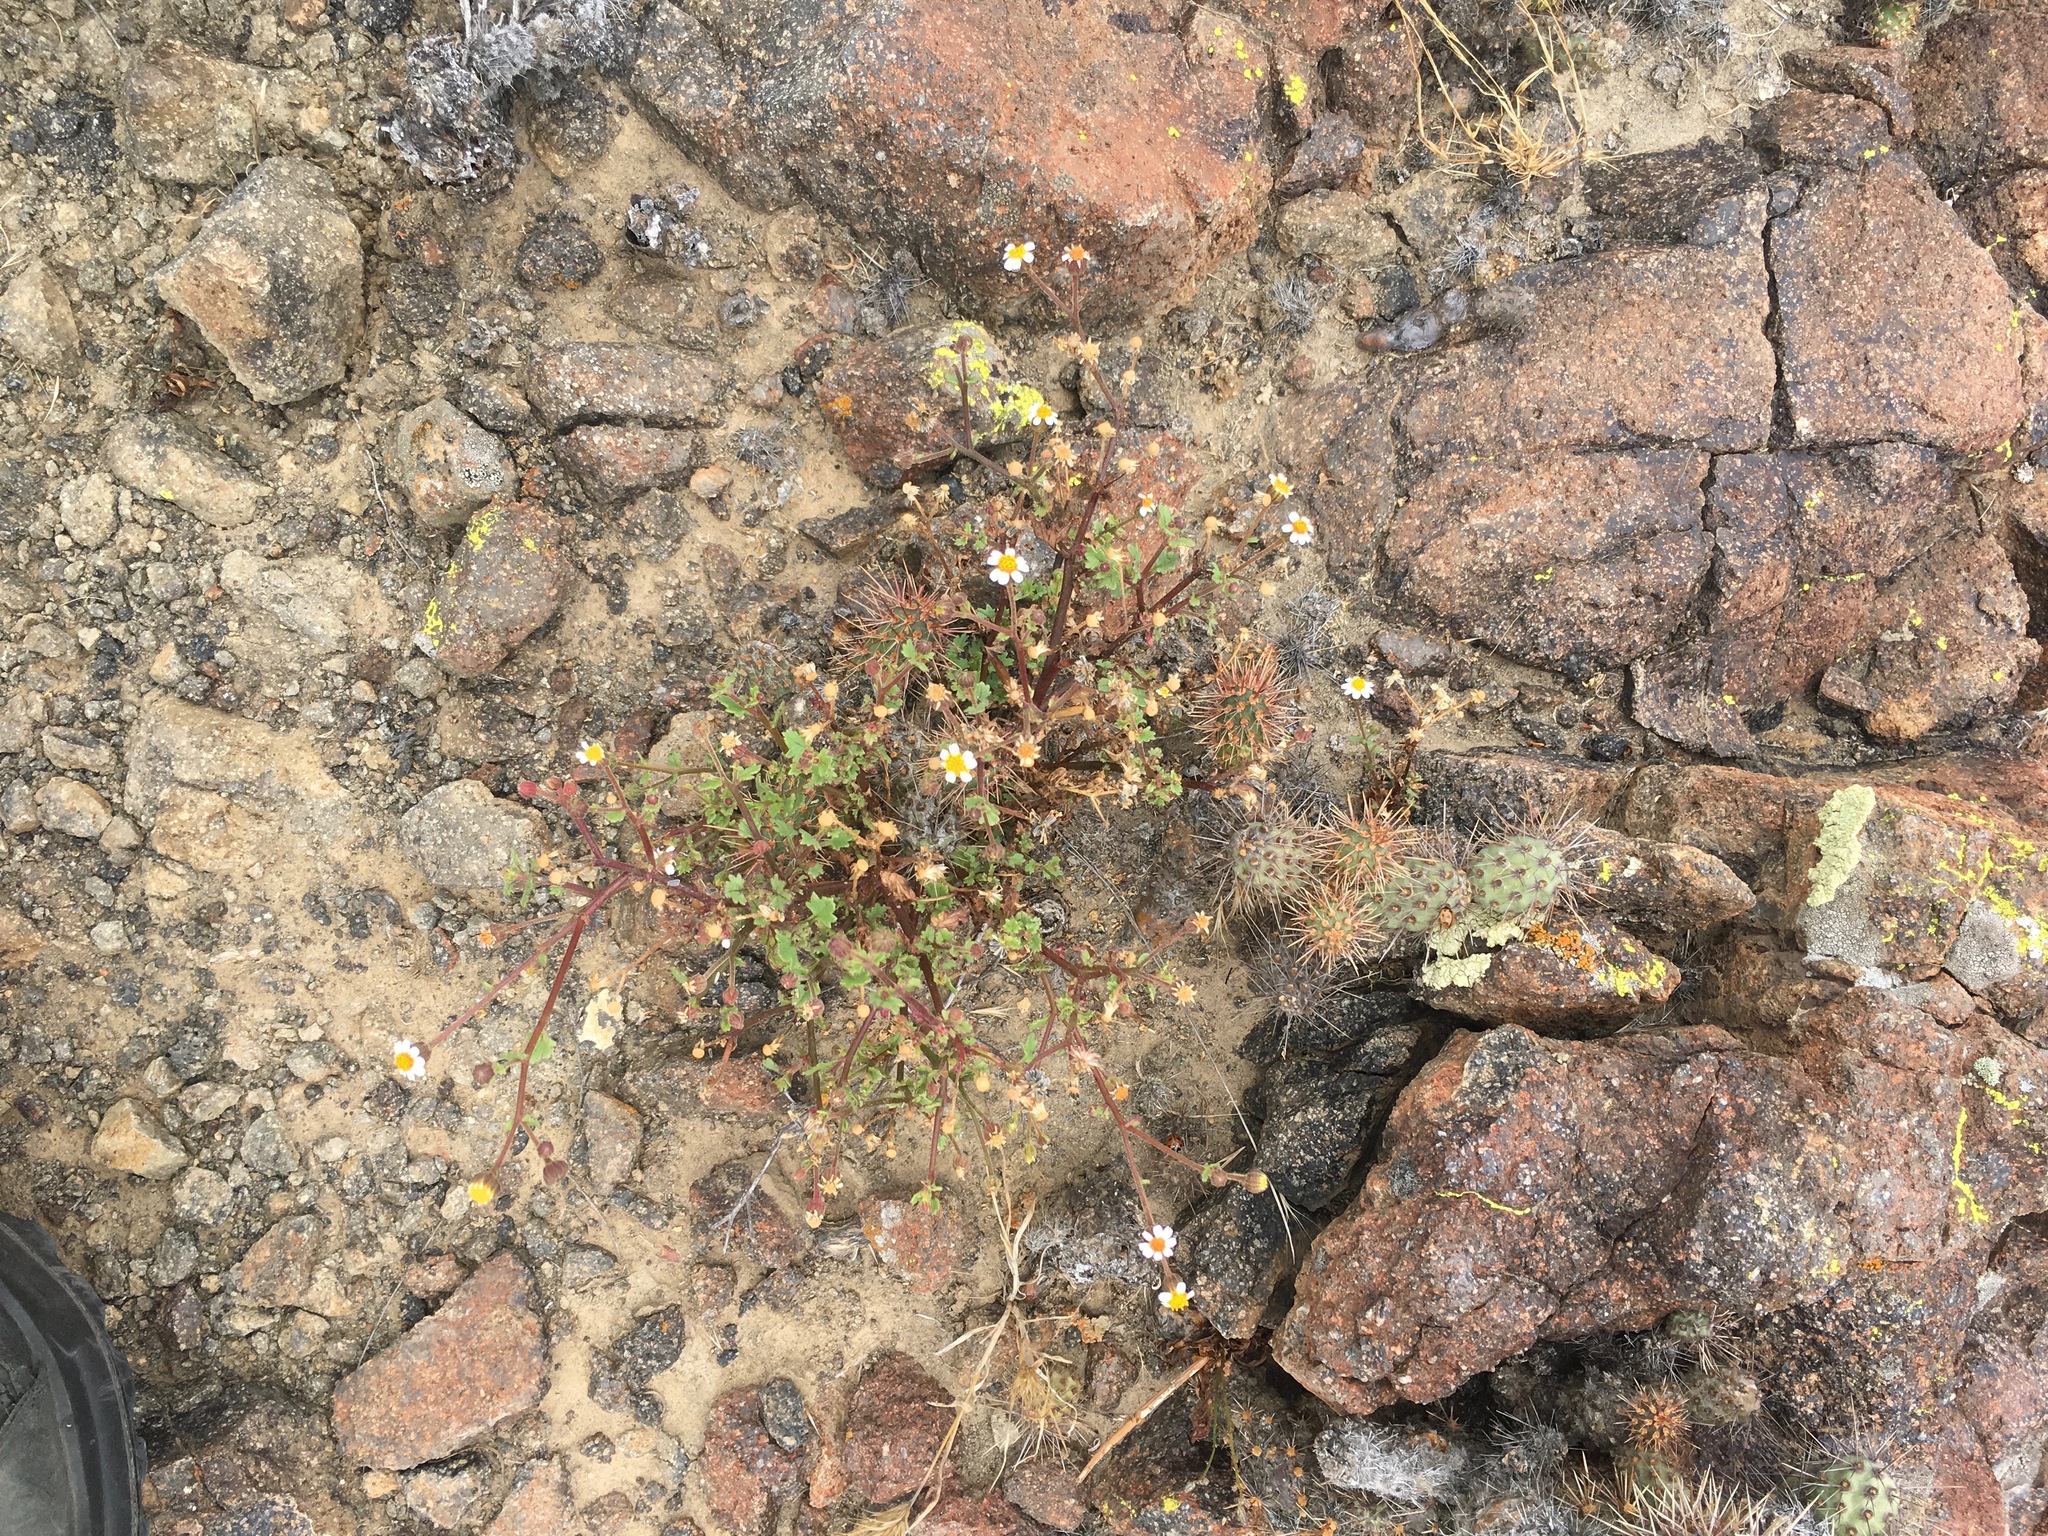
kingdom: Plantae
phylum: Tracheophyta
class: Magnoliopsida
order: Asterales
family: Asteraceae
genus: Laphamia
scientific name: Laphamia emoryi
